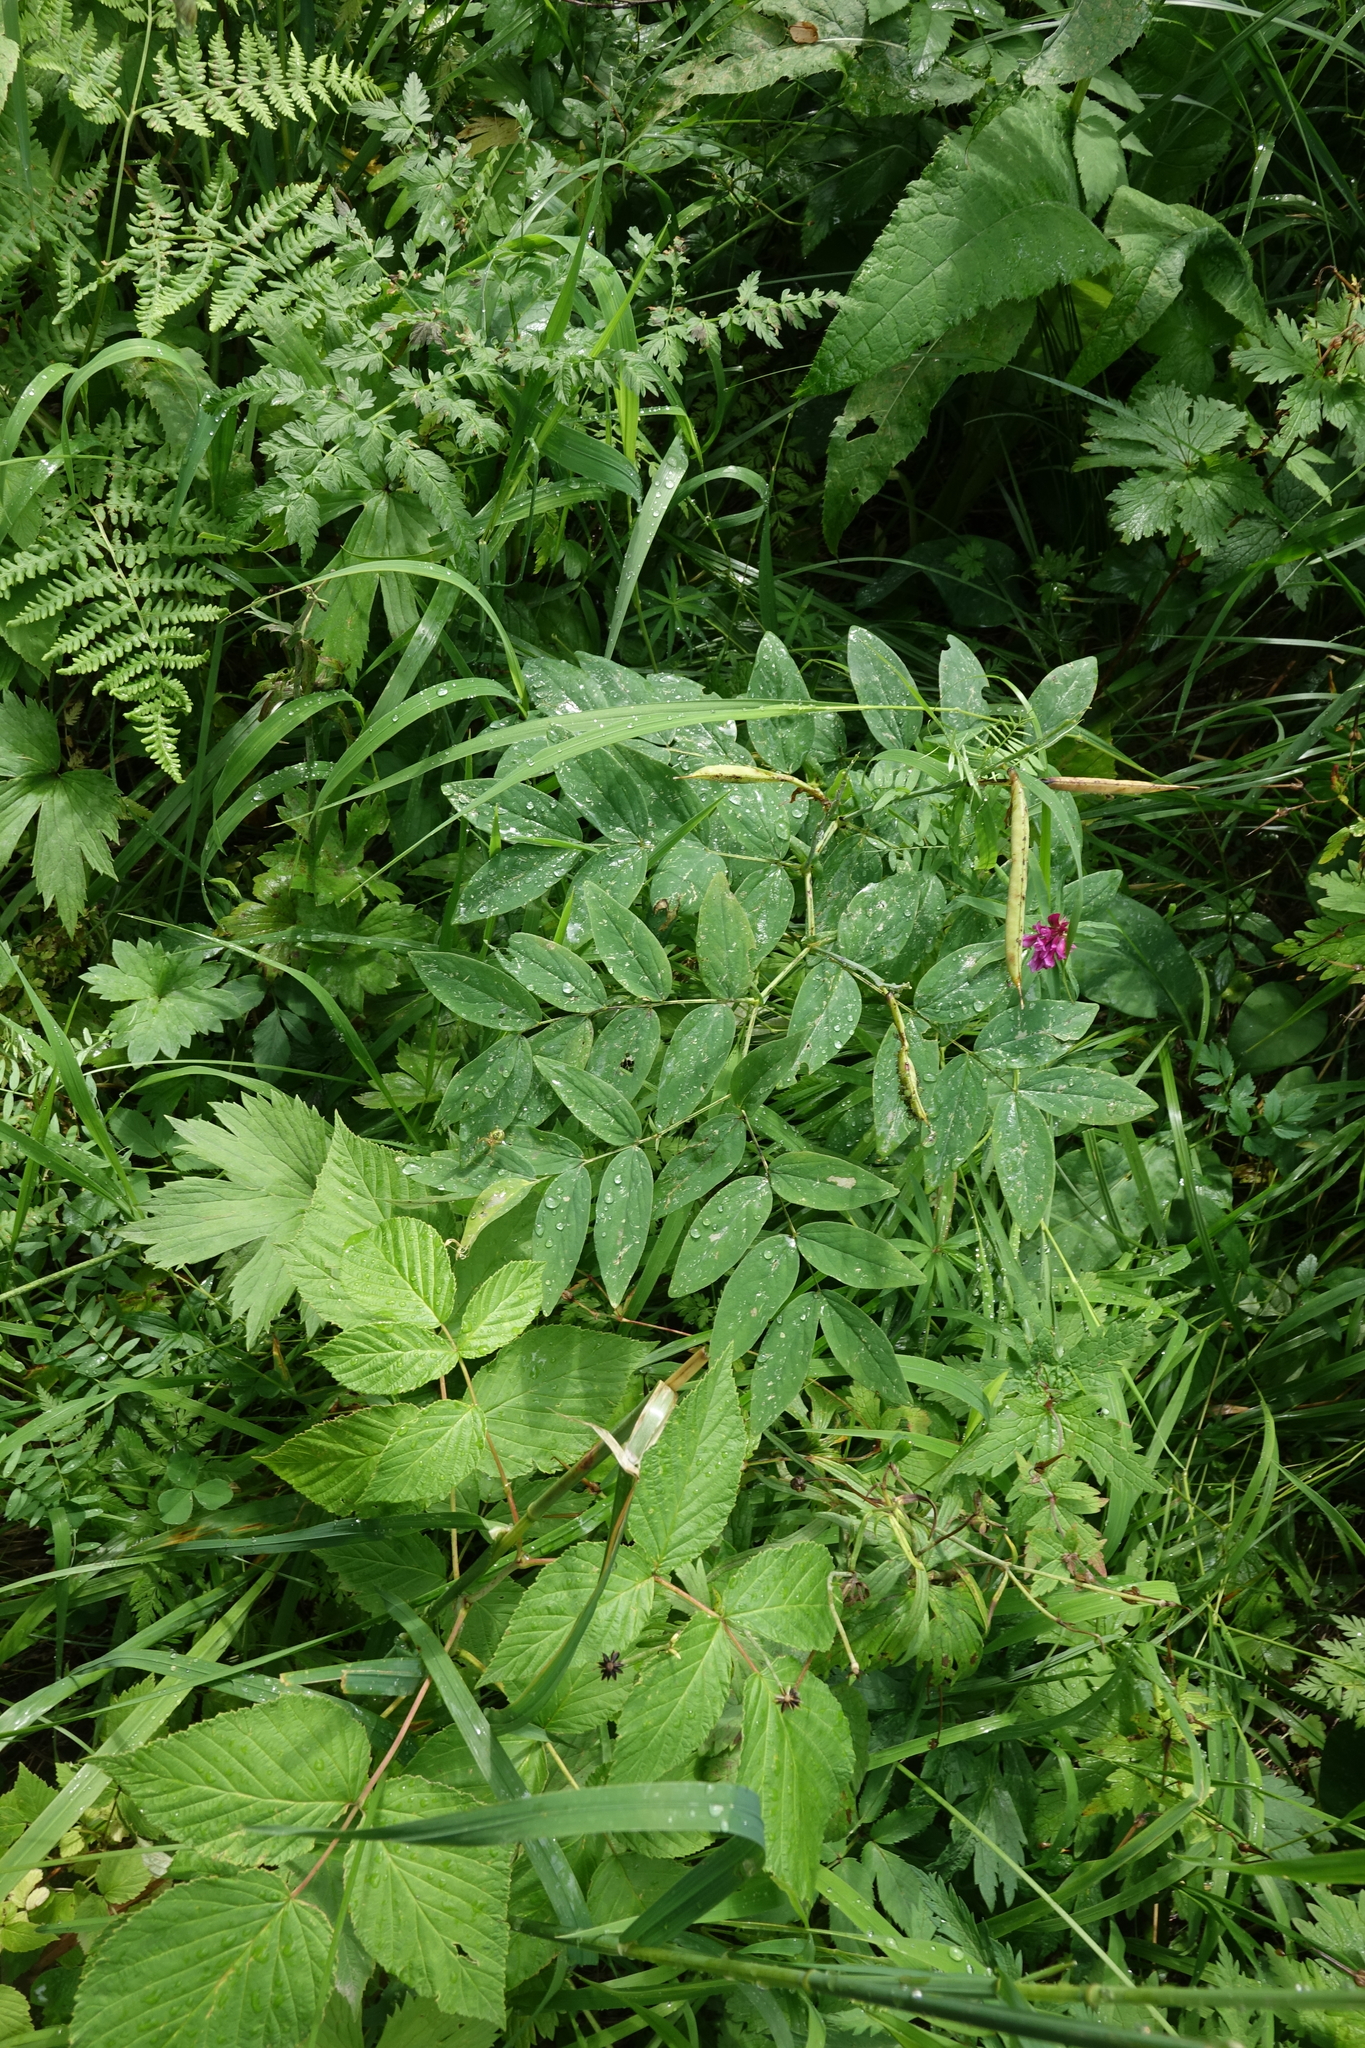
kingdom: Plantae
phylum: Tracheophyta
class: Magnoliopsida
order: Fabales
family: Fabaceae
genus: Lathyrus
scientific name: Lathyrus gmelinii
